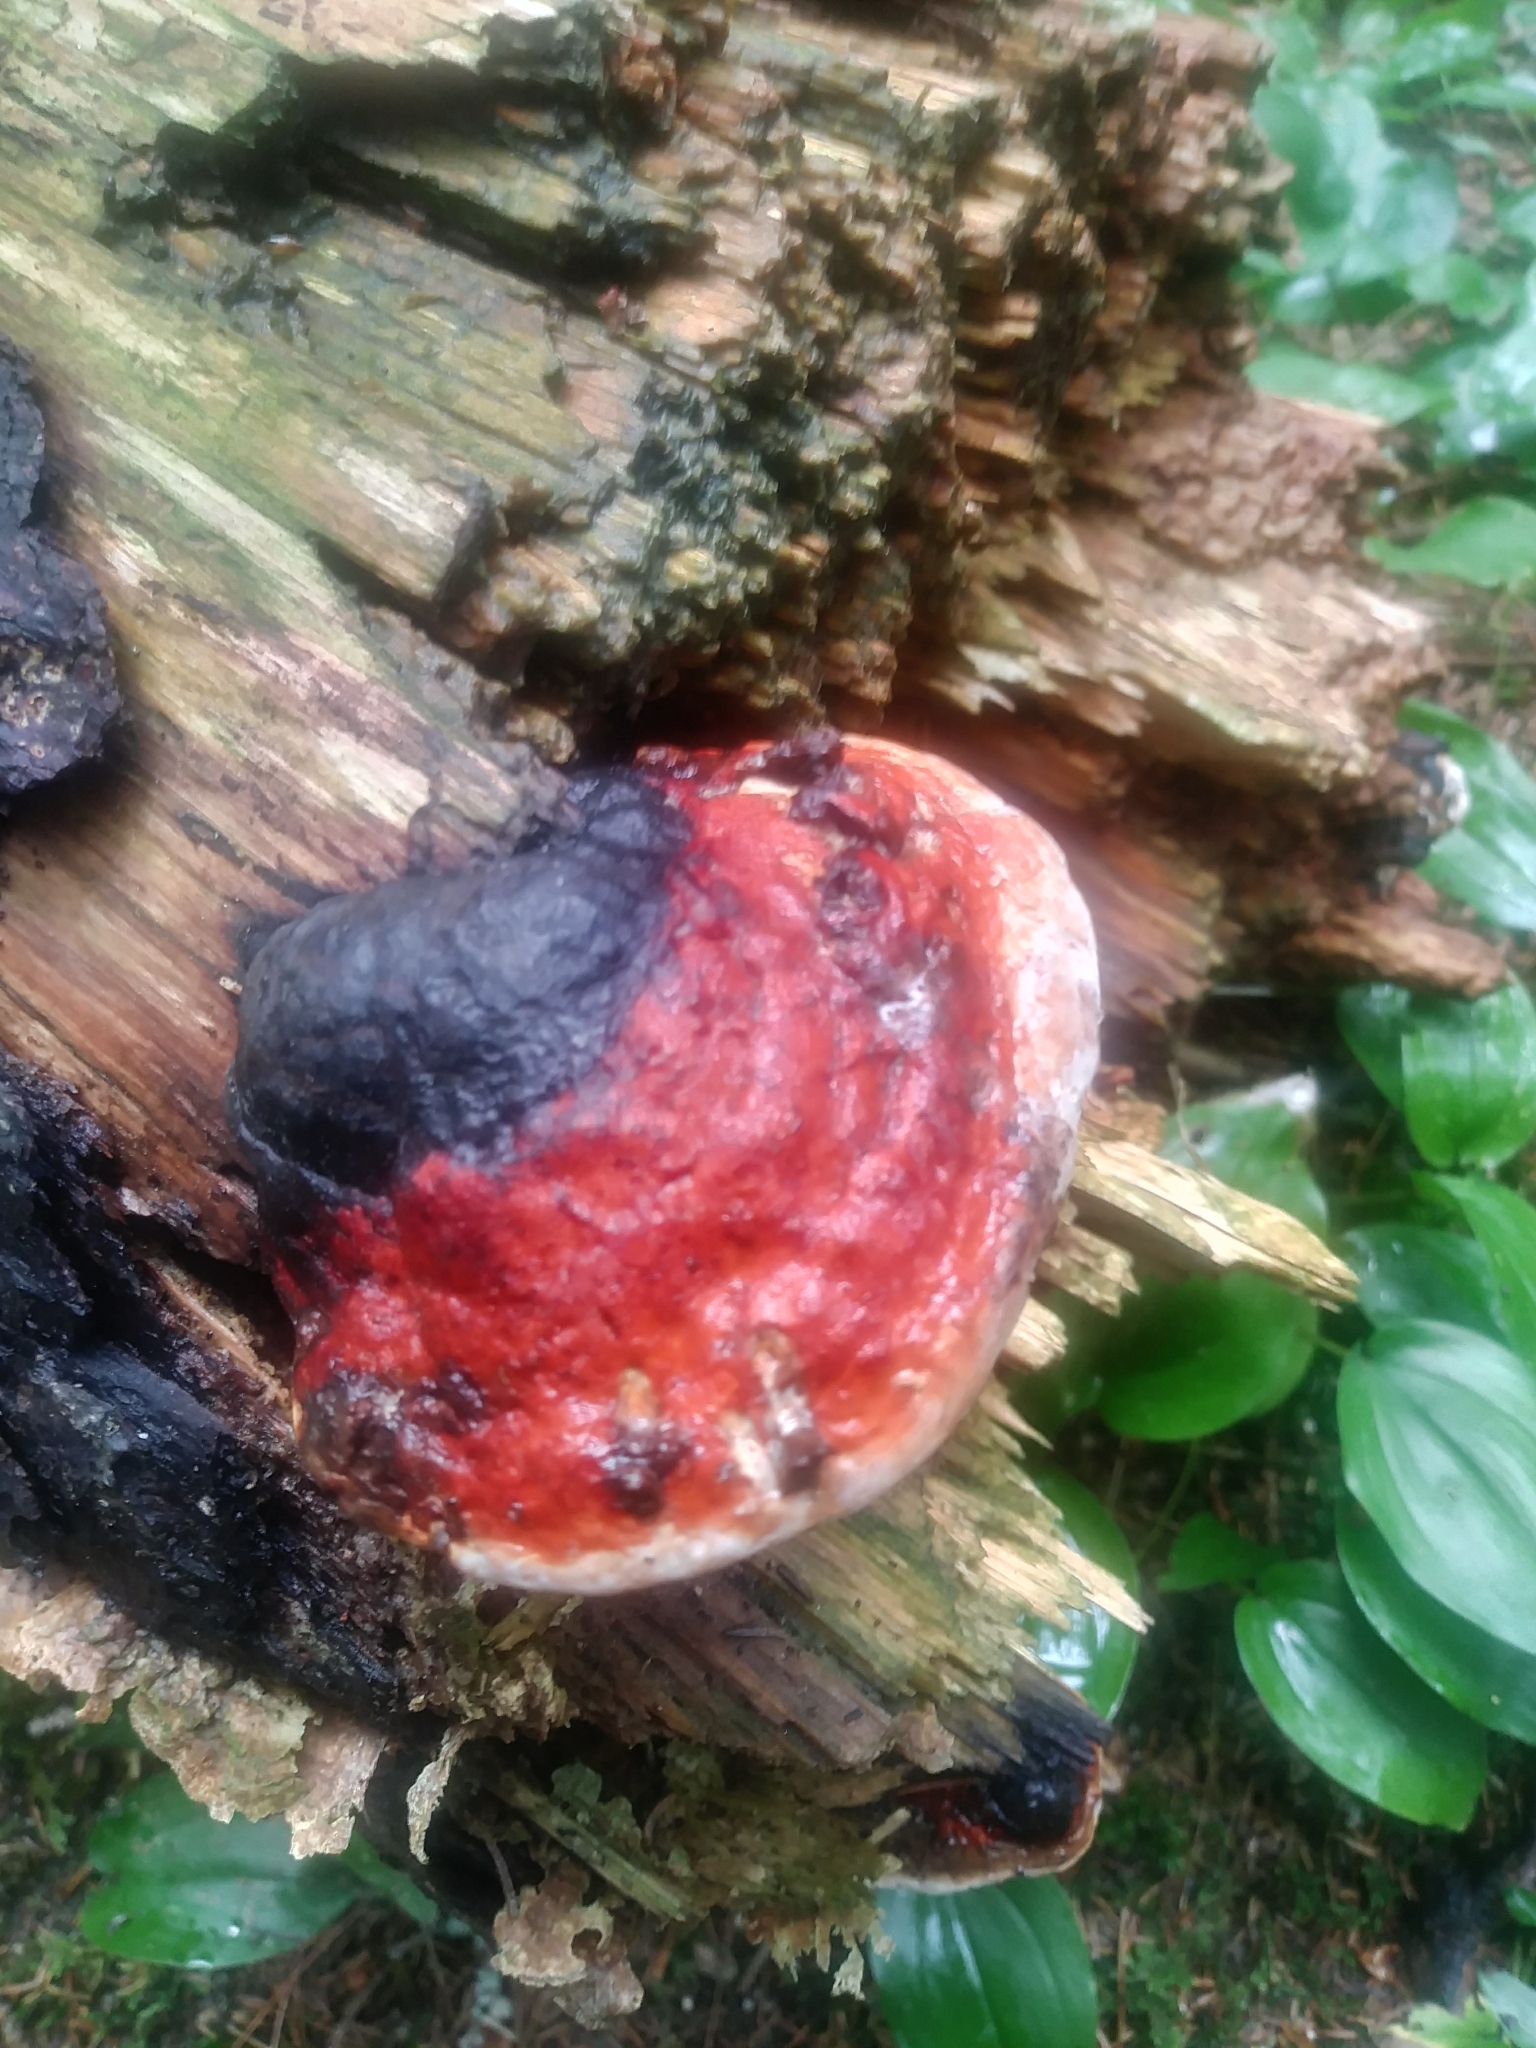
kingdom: Fungi
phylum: Basidiomycota
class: Agaricomycetes
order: Polyporales
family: Fomitopsidaceae
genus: Fomitopsis
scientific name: Fomitopsis mounceae
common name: Northern red belt
